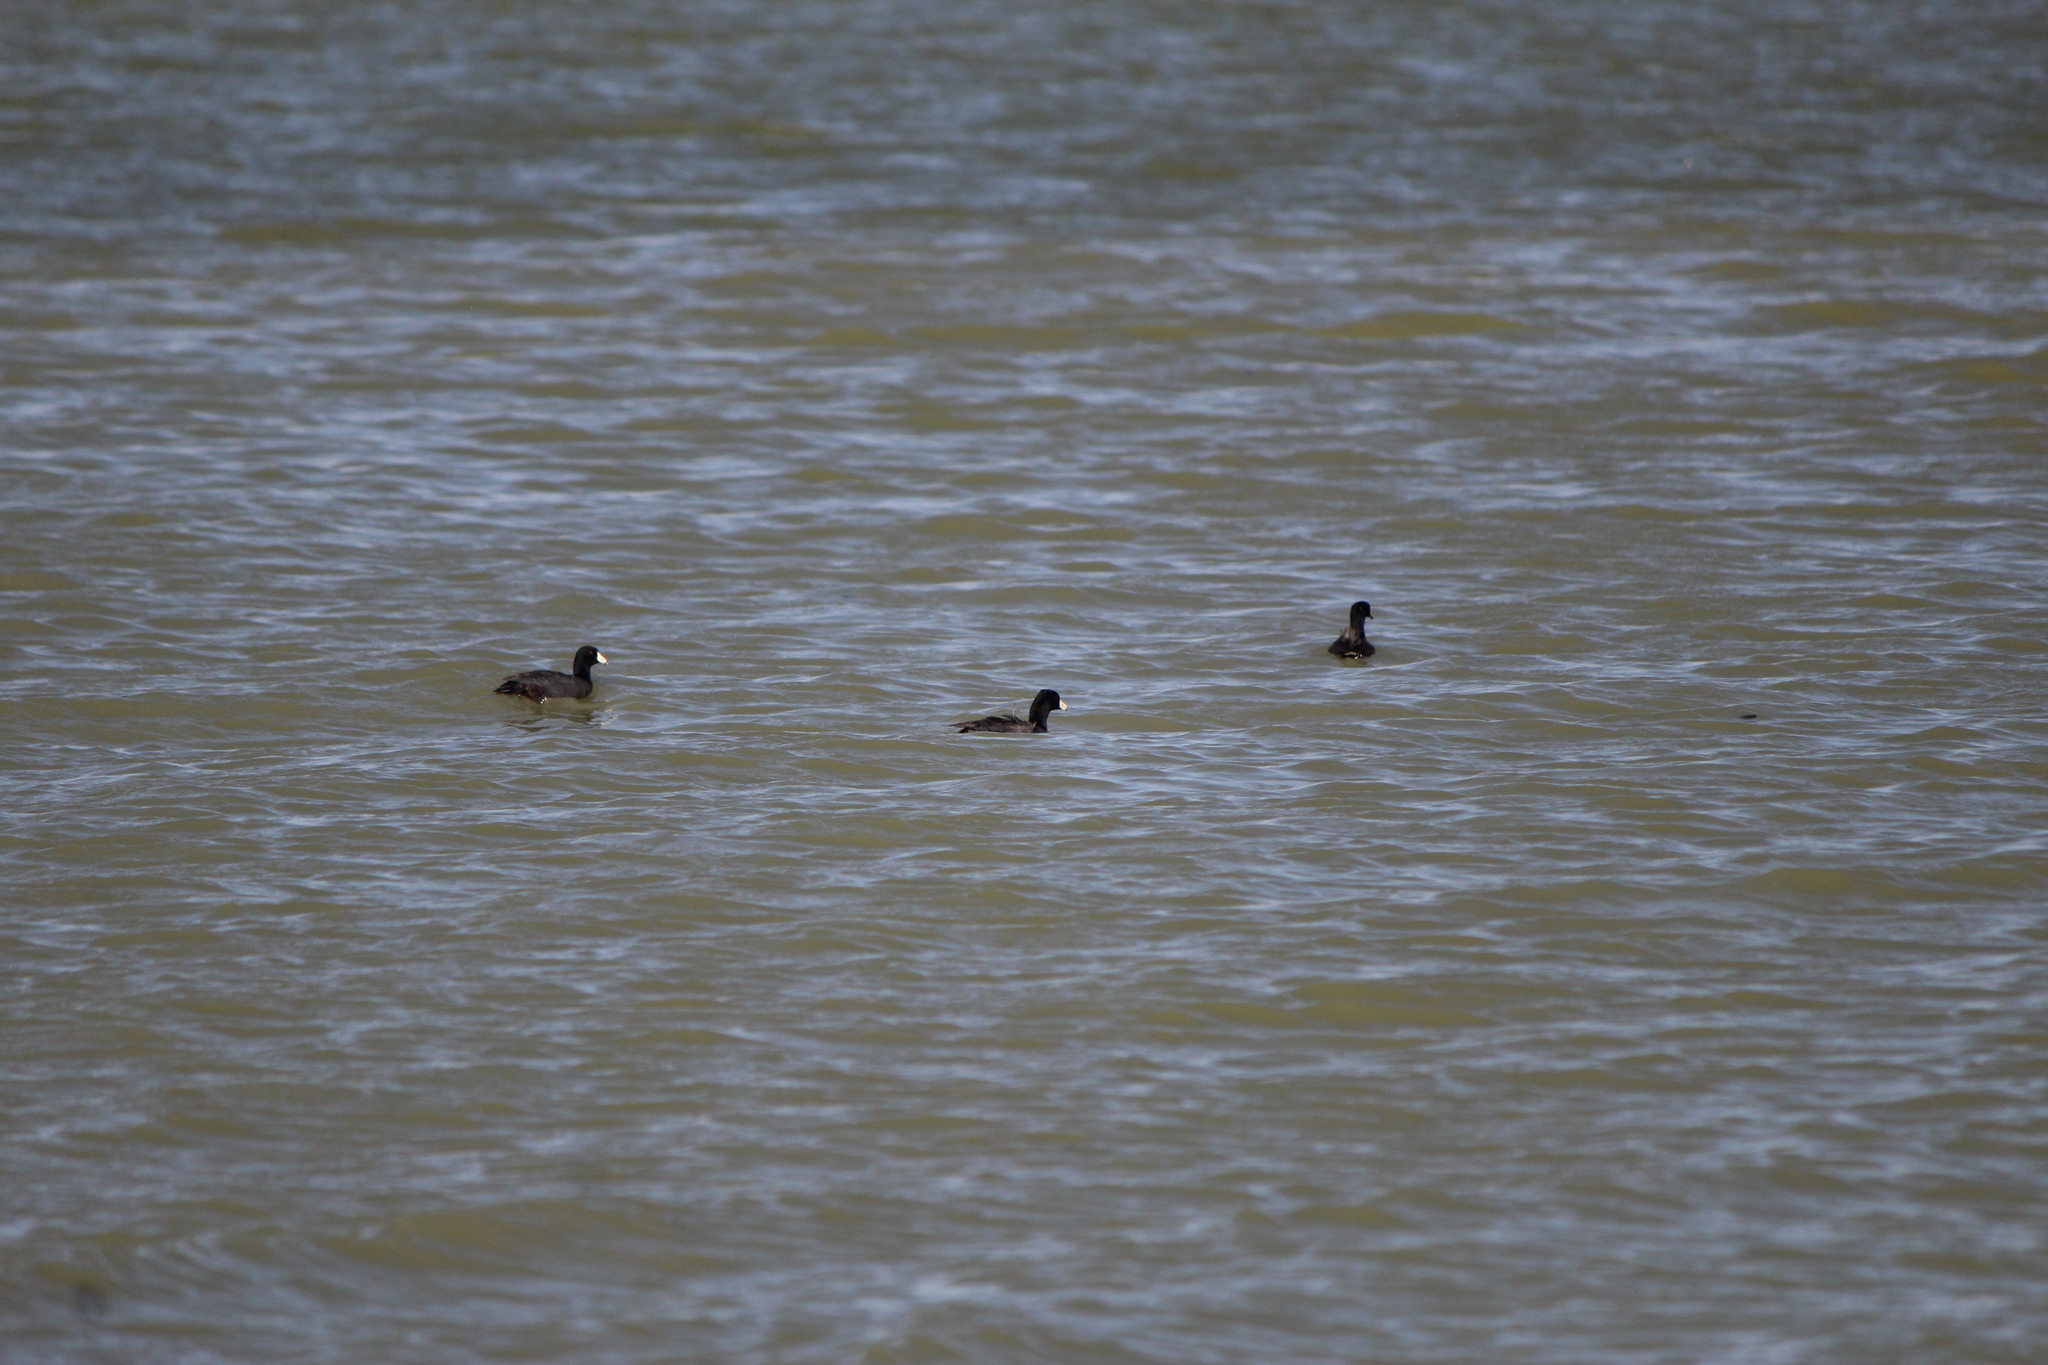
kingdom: Animalia
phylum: Chordata
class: Aves
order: Gruiformes
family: Rallidae
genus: Fulica
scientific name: Fulica americana
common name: American coot
